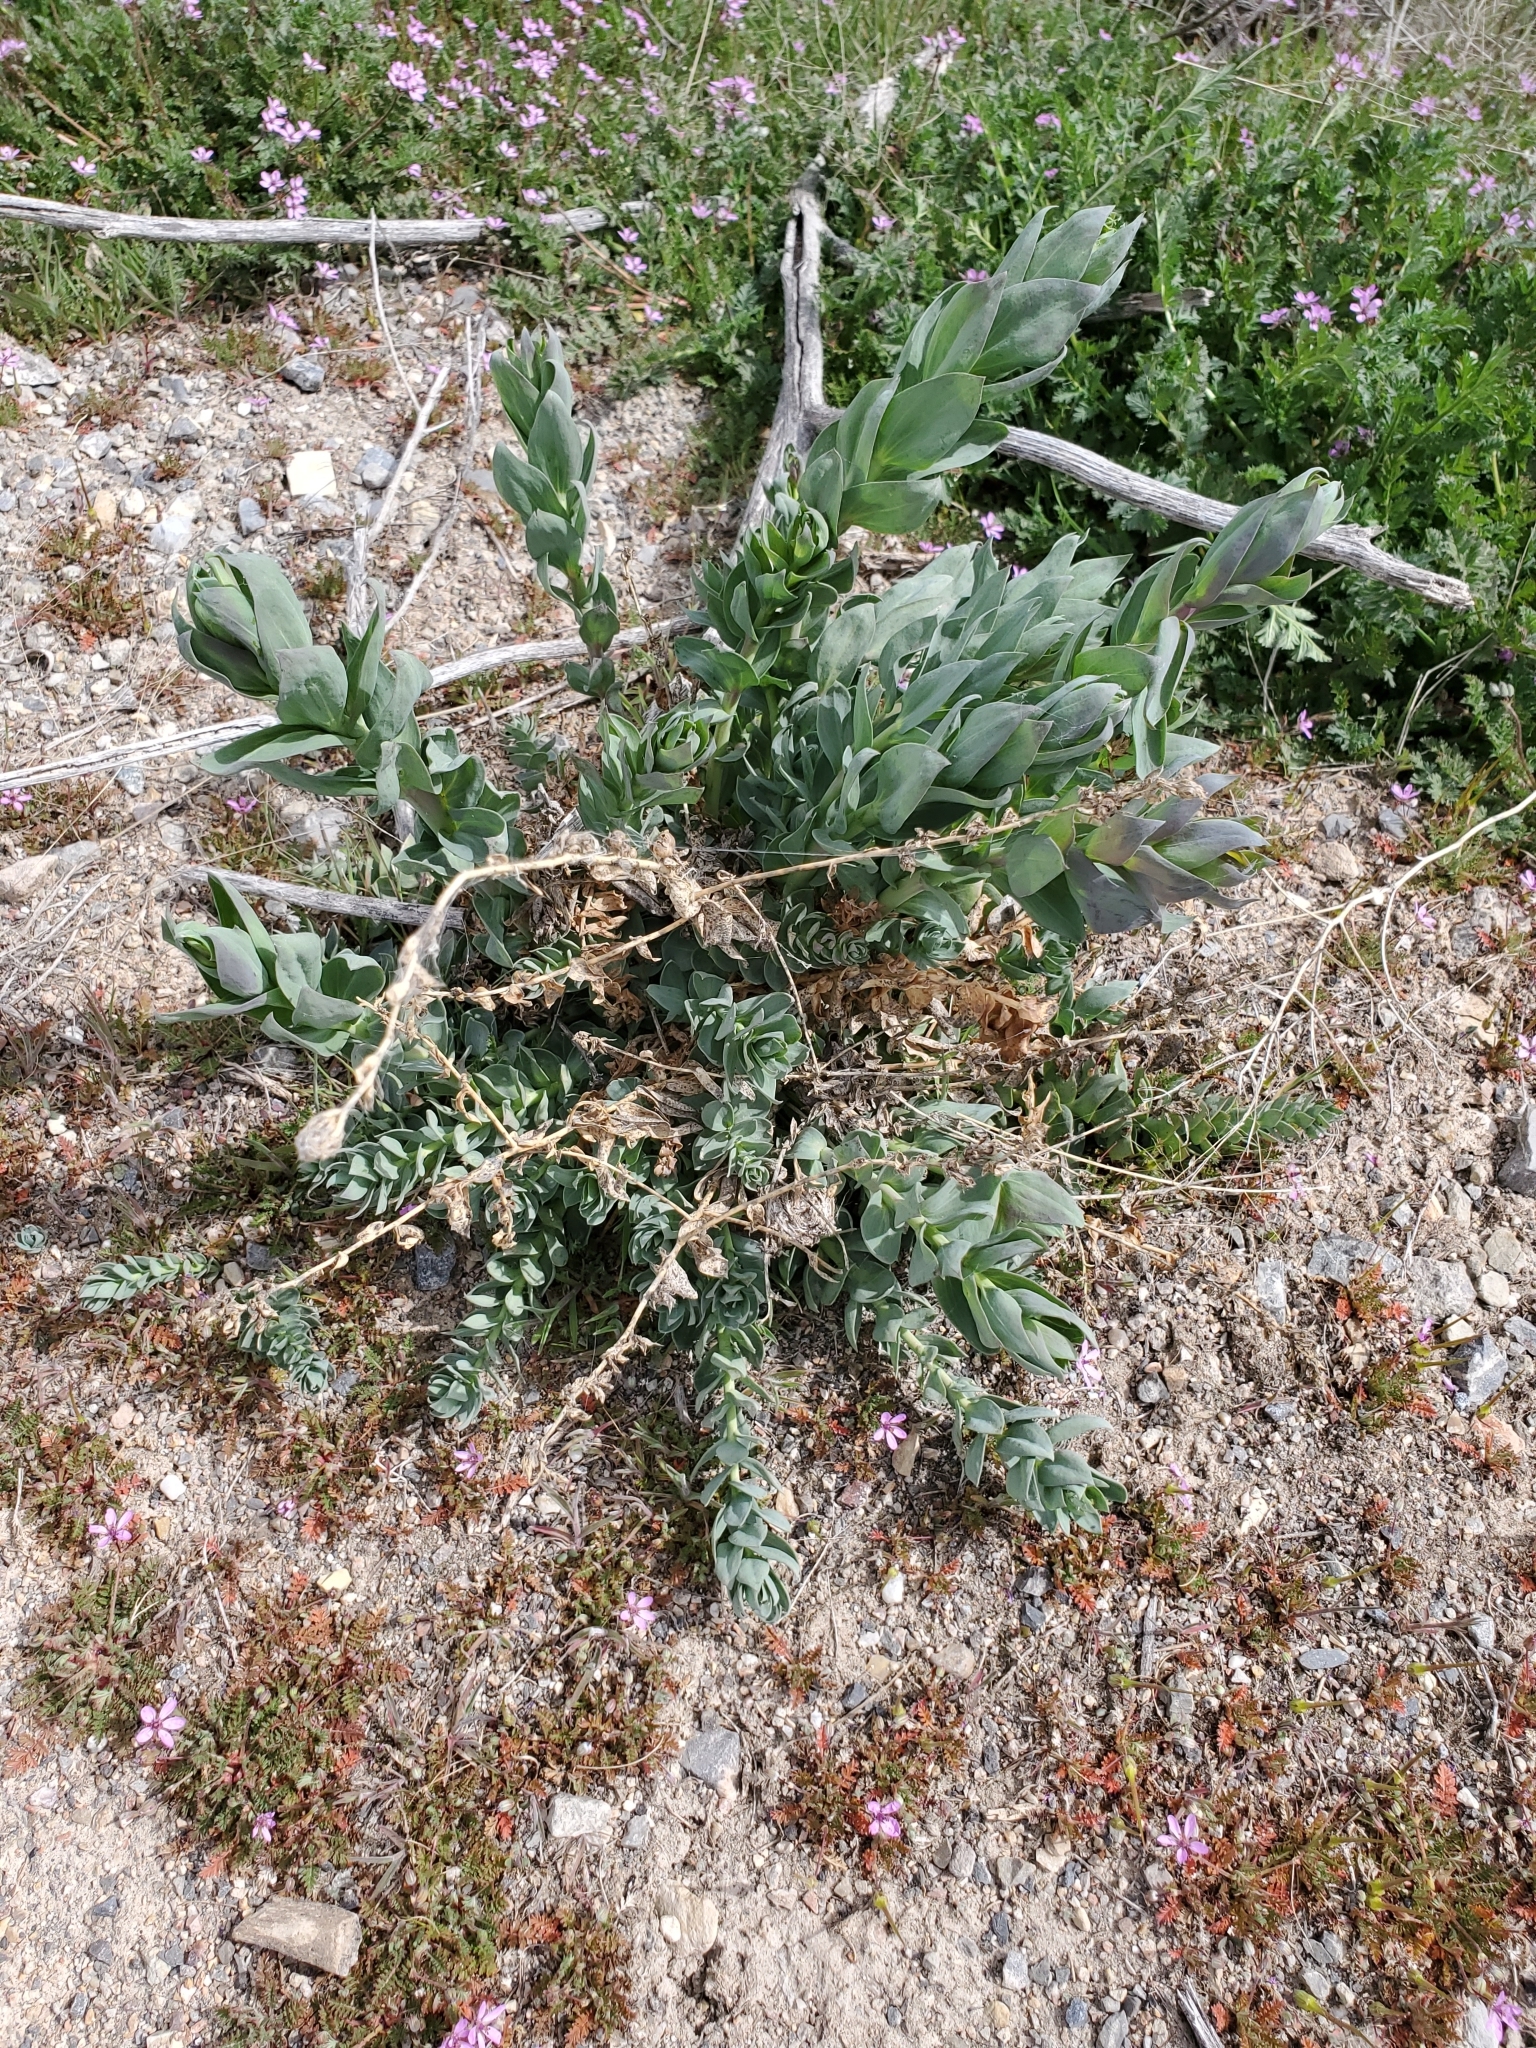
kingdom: Plantae
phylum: Tracheophyta
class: Magnoliopsida
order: Lamiales
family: Plantaginaceae
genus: Linaria
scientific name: Linaria dalmatica
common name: Dalmatian toadflax
